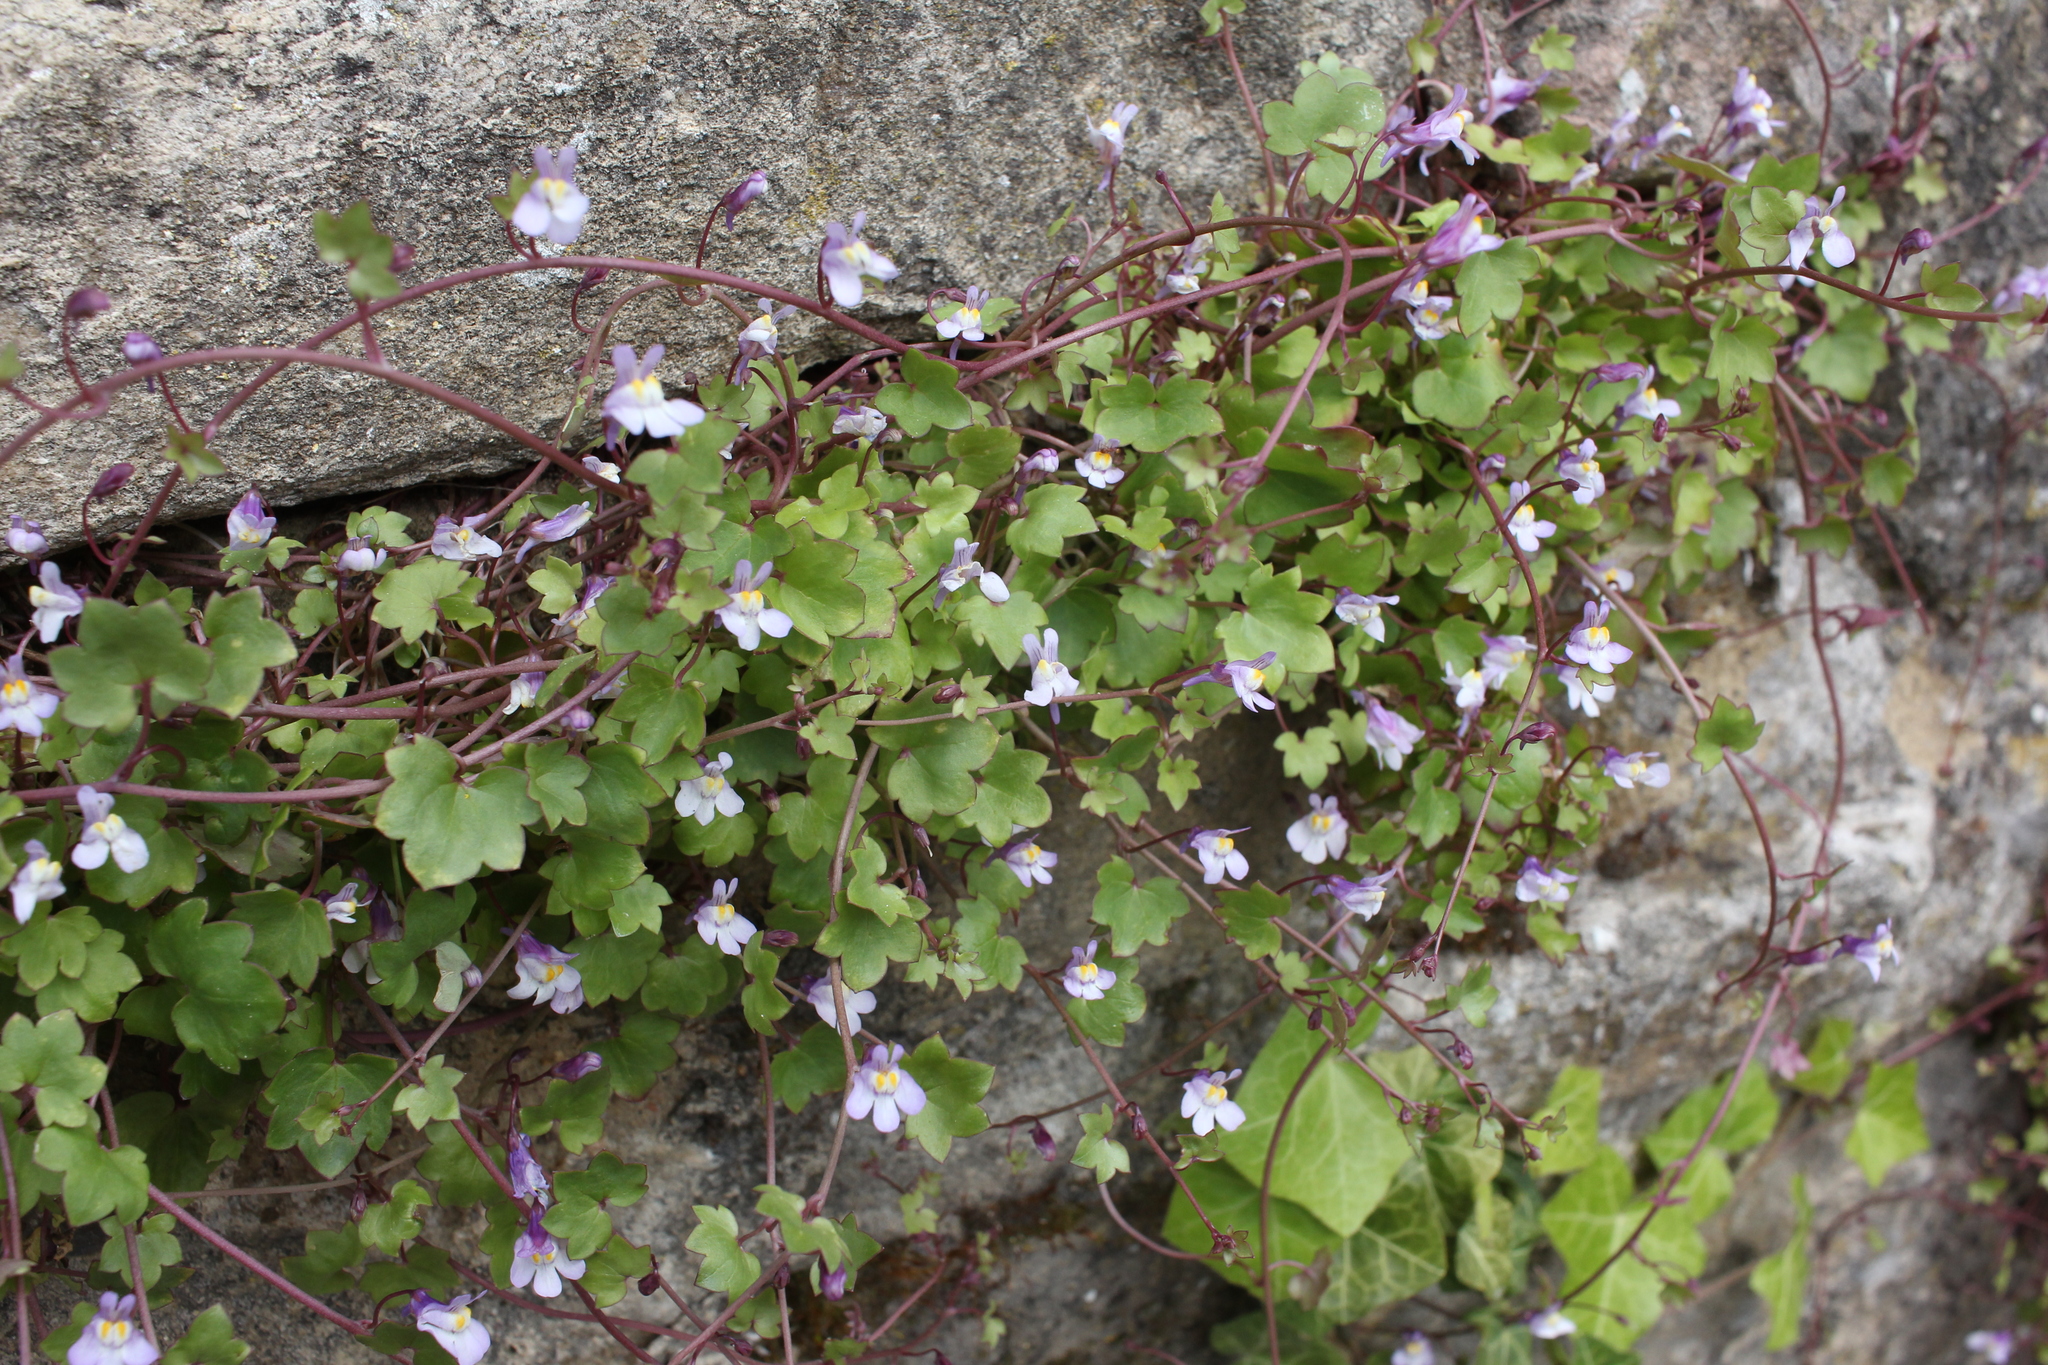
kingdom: Plantae
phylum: Tracheophyta
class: Magnoliopsida
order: Lamiales
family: Plantaginaceae
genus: Cymbalaria
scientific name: Cymbalaria muralis
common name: Ivy-leaved toadflax
